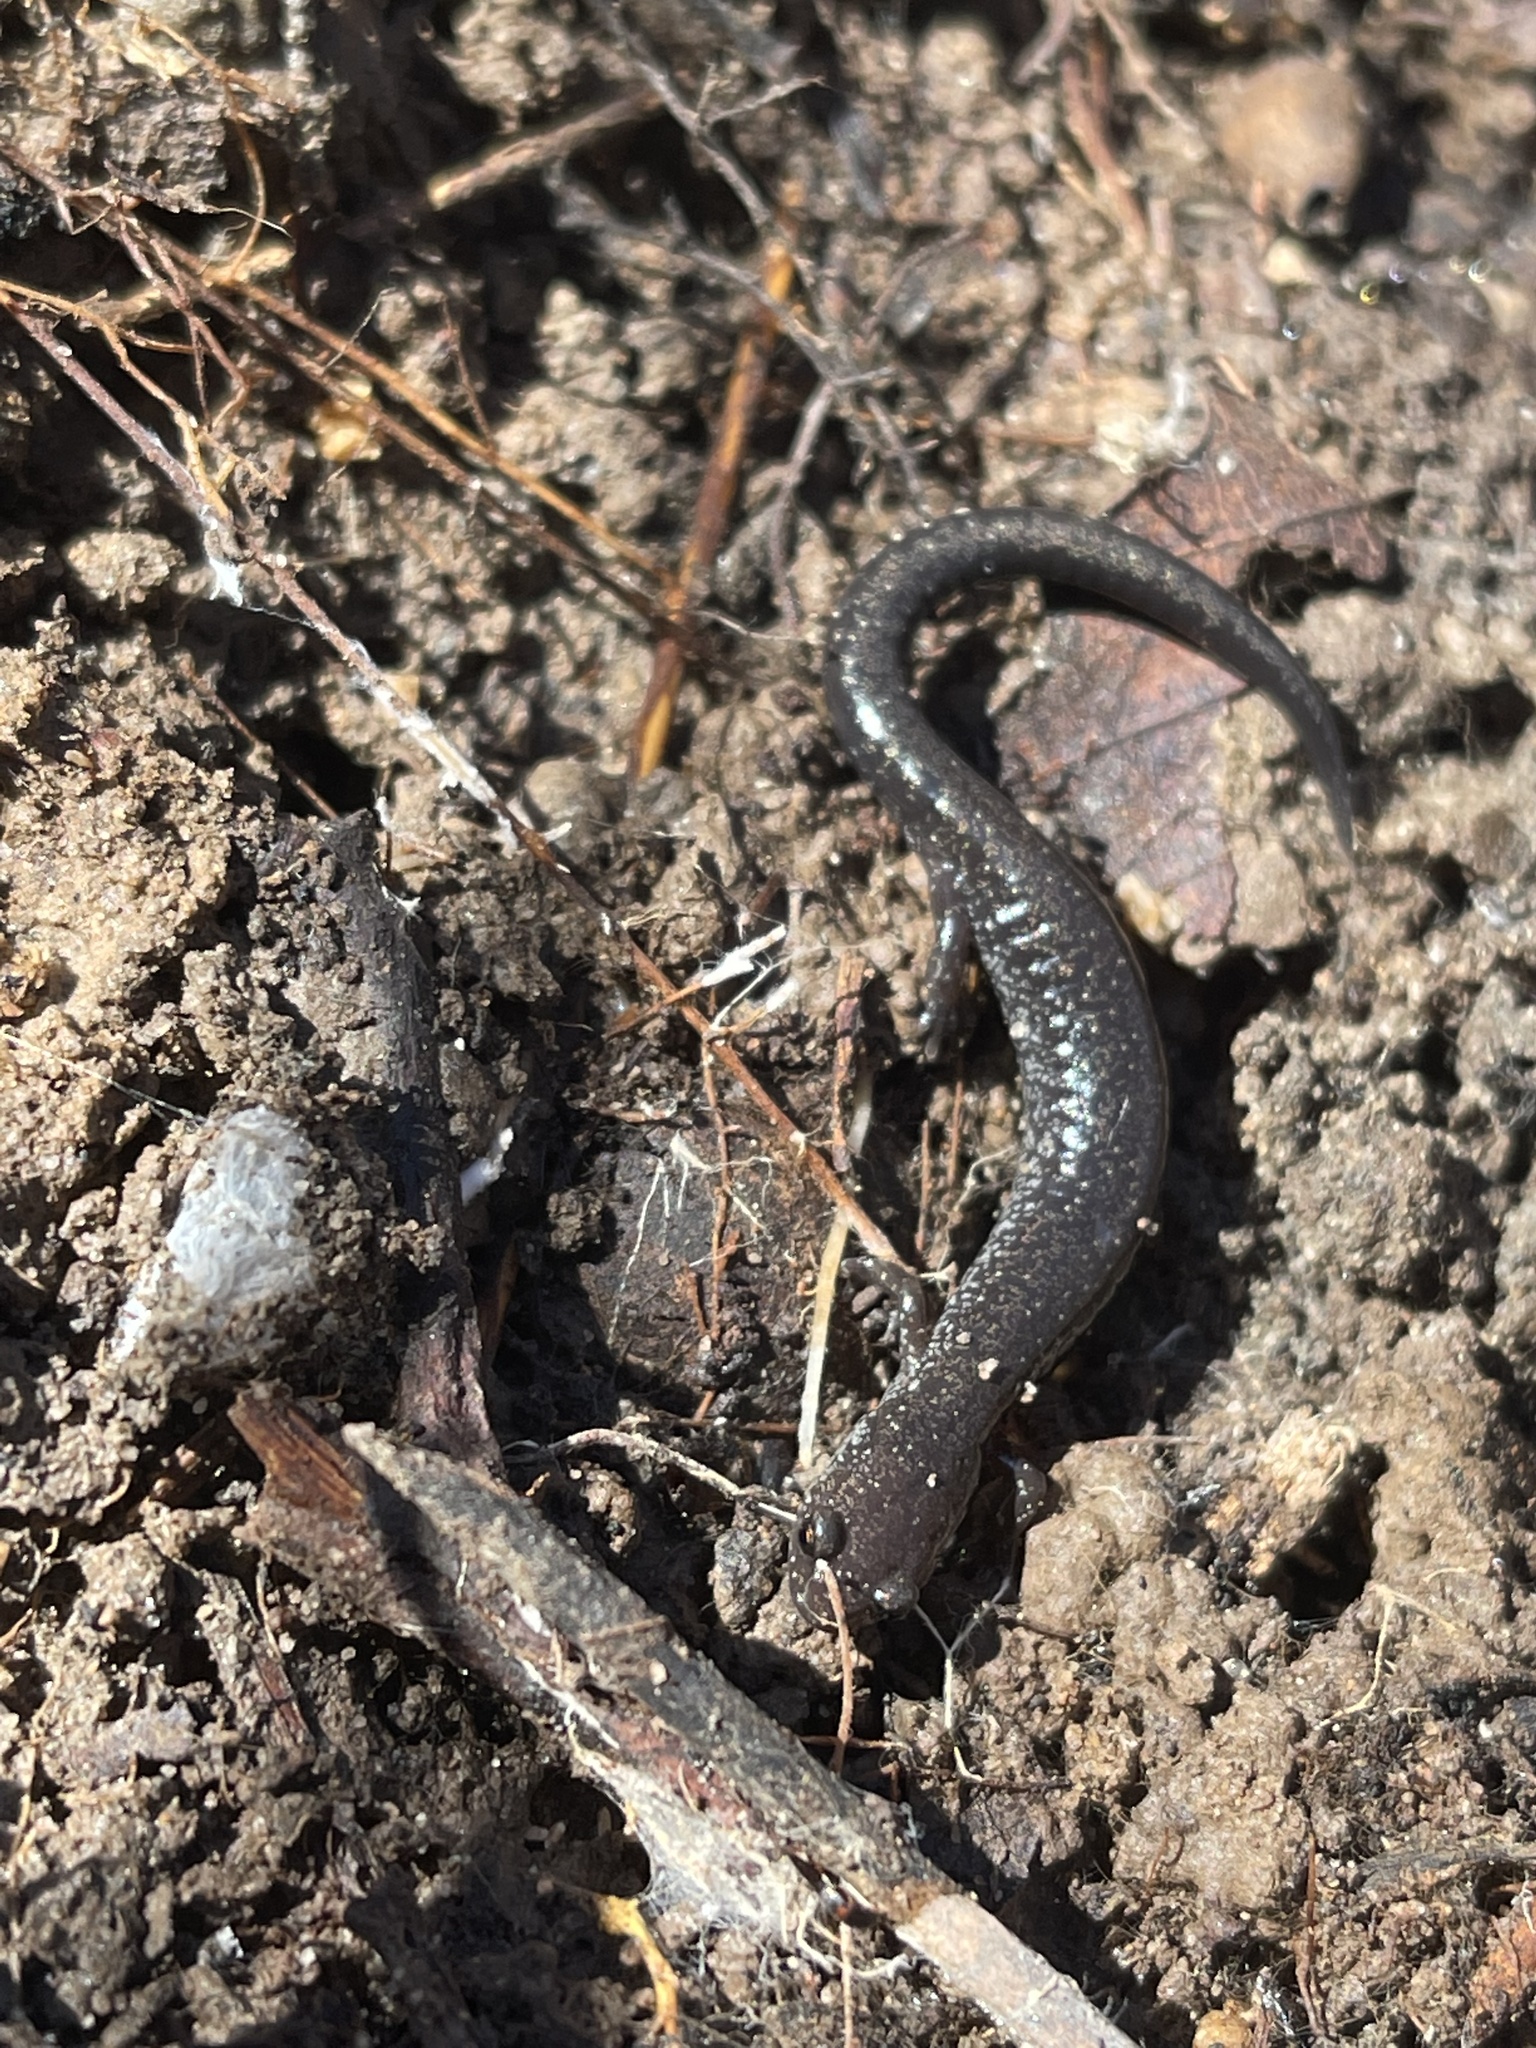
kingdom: Animalia
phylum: Chordata
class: Amphibia
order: Caudata
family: Plethodontidae
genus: Plethodon
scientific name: Plethodon dorsalis
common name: Northern zigzag salamander
